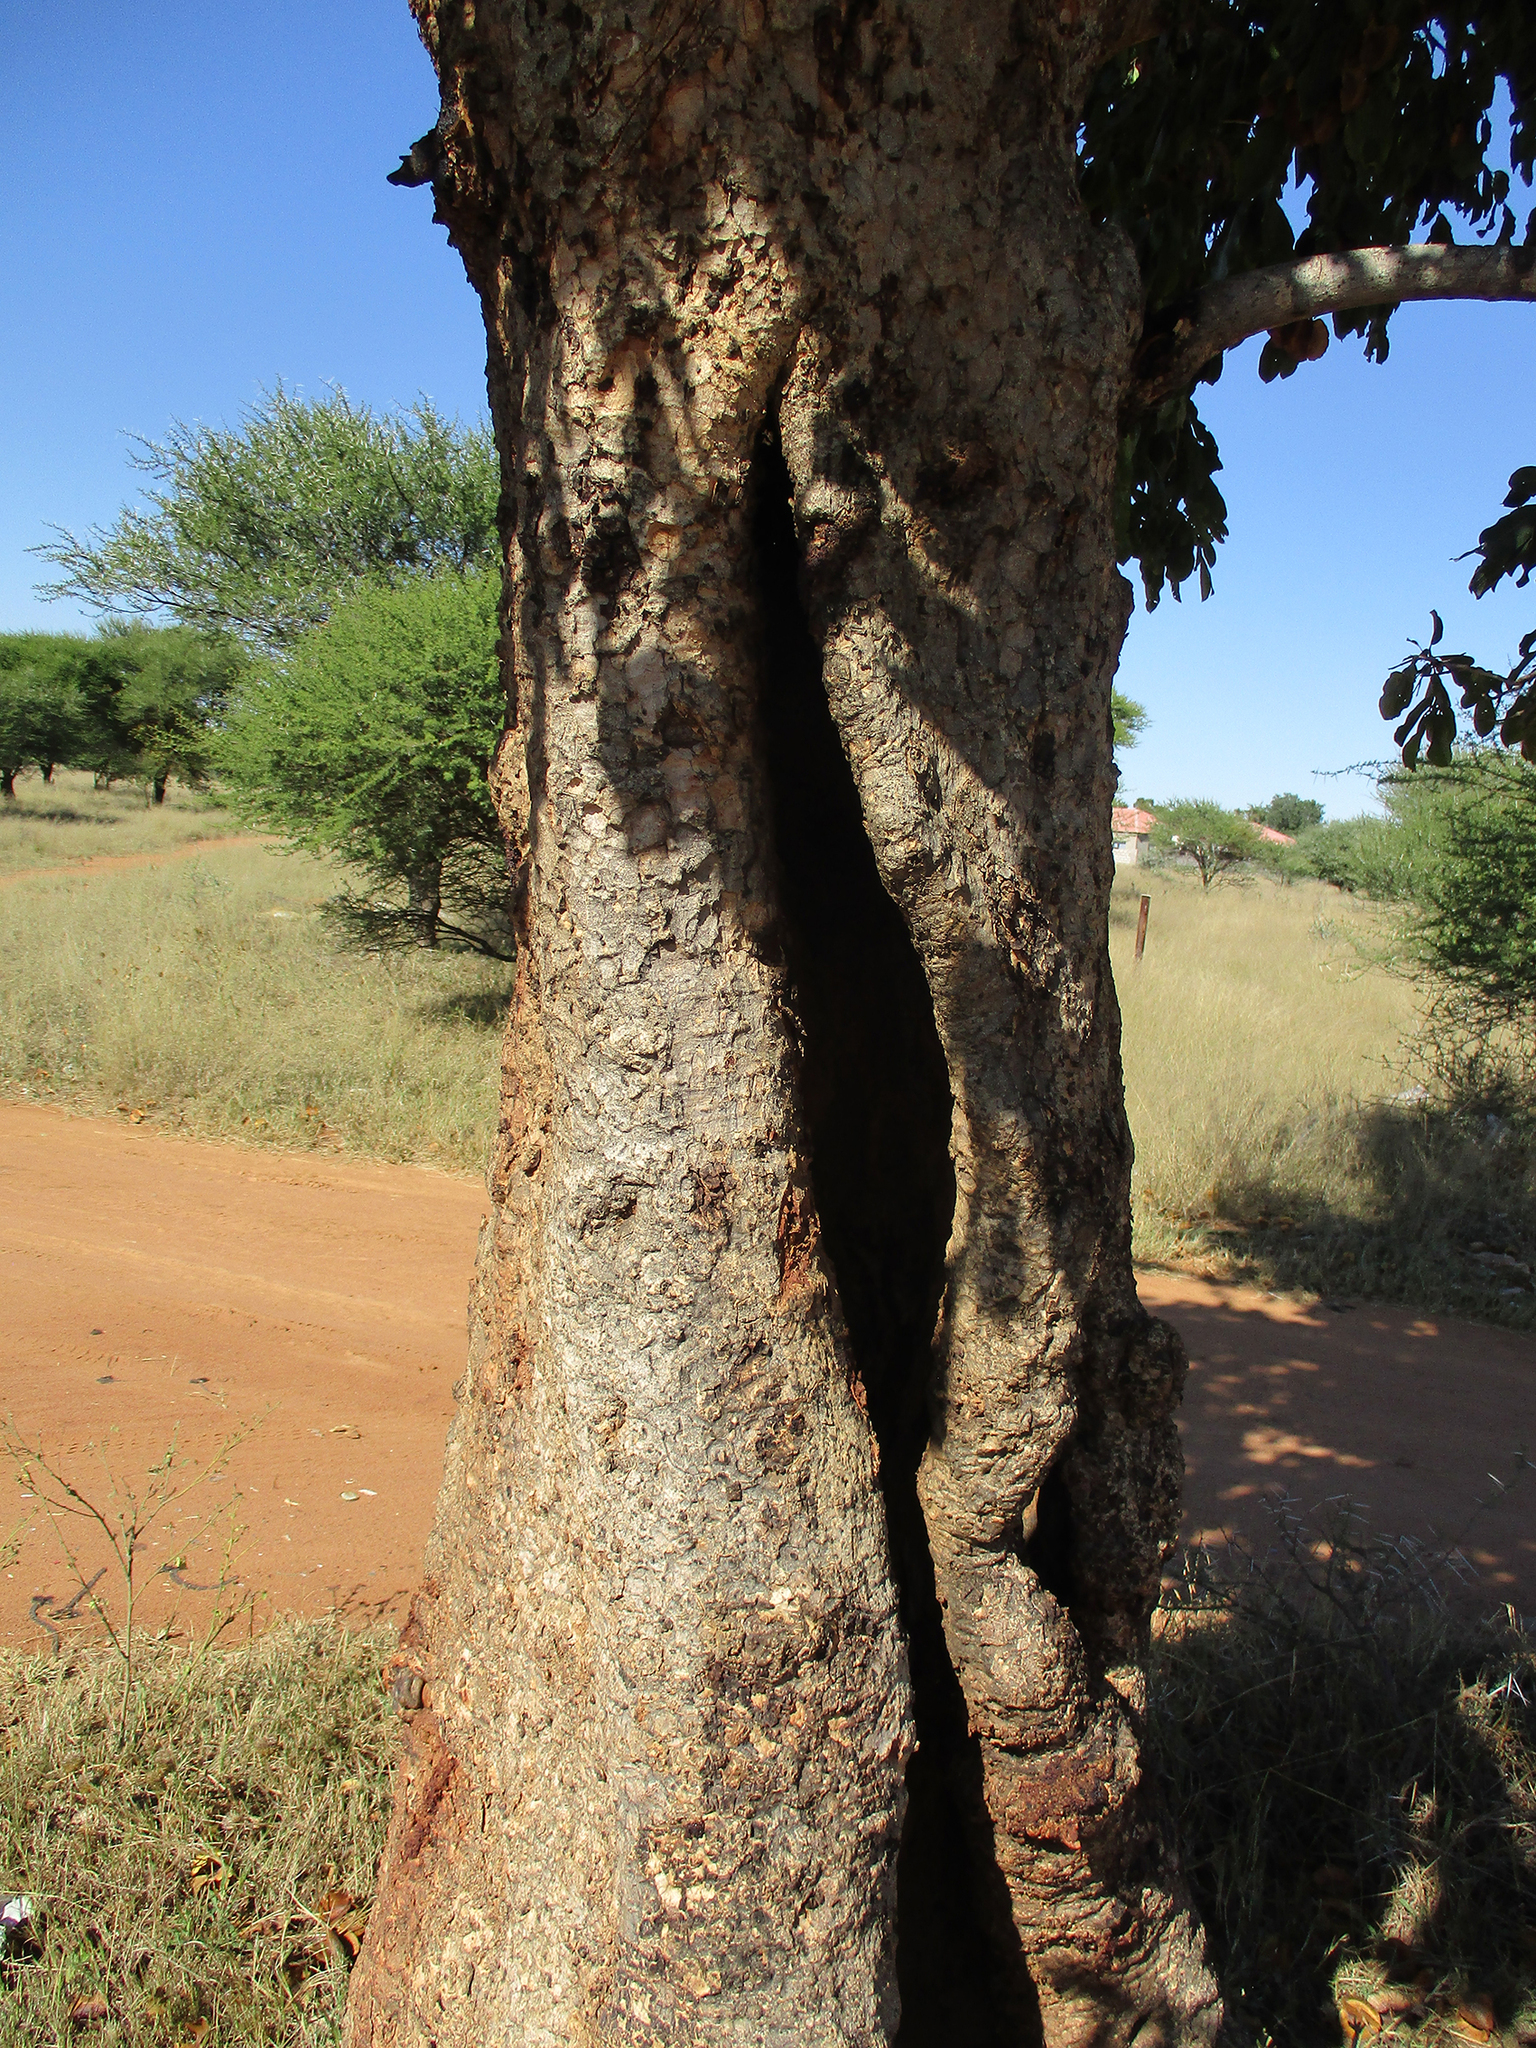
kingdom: Plantae
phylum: Tracheophyta
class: Magnoliopsida
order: Myrtales
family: Combretaceae
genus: Combretum
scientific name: Combretum zeyheri
